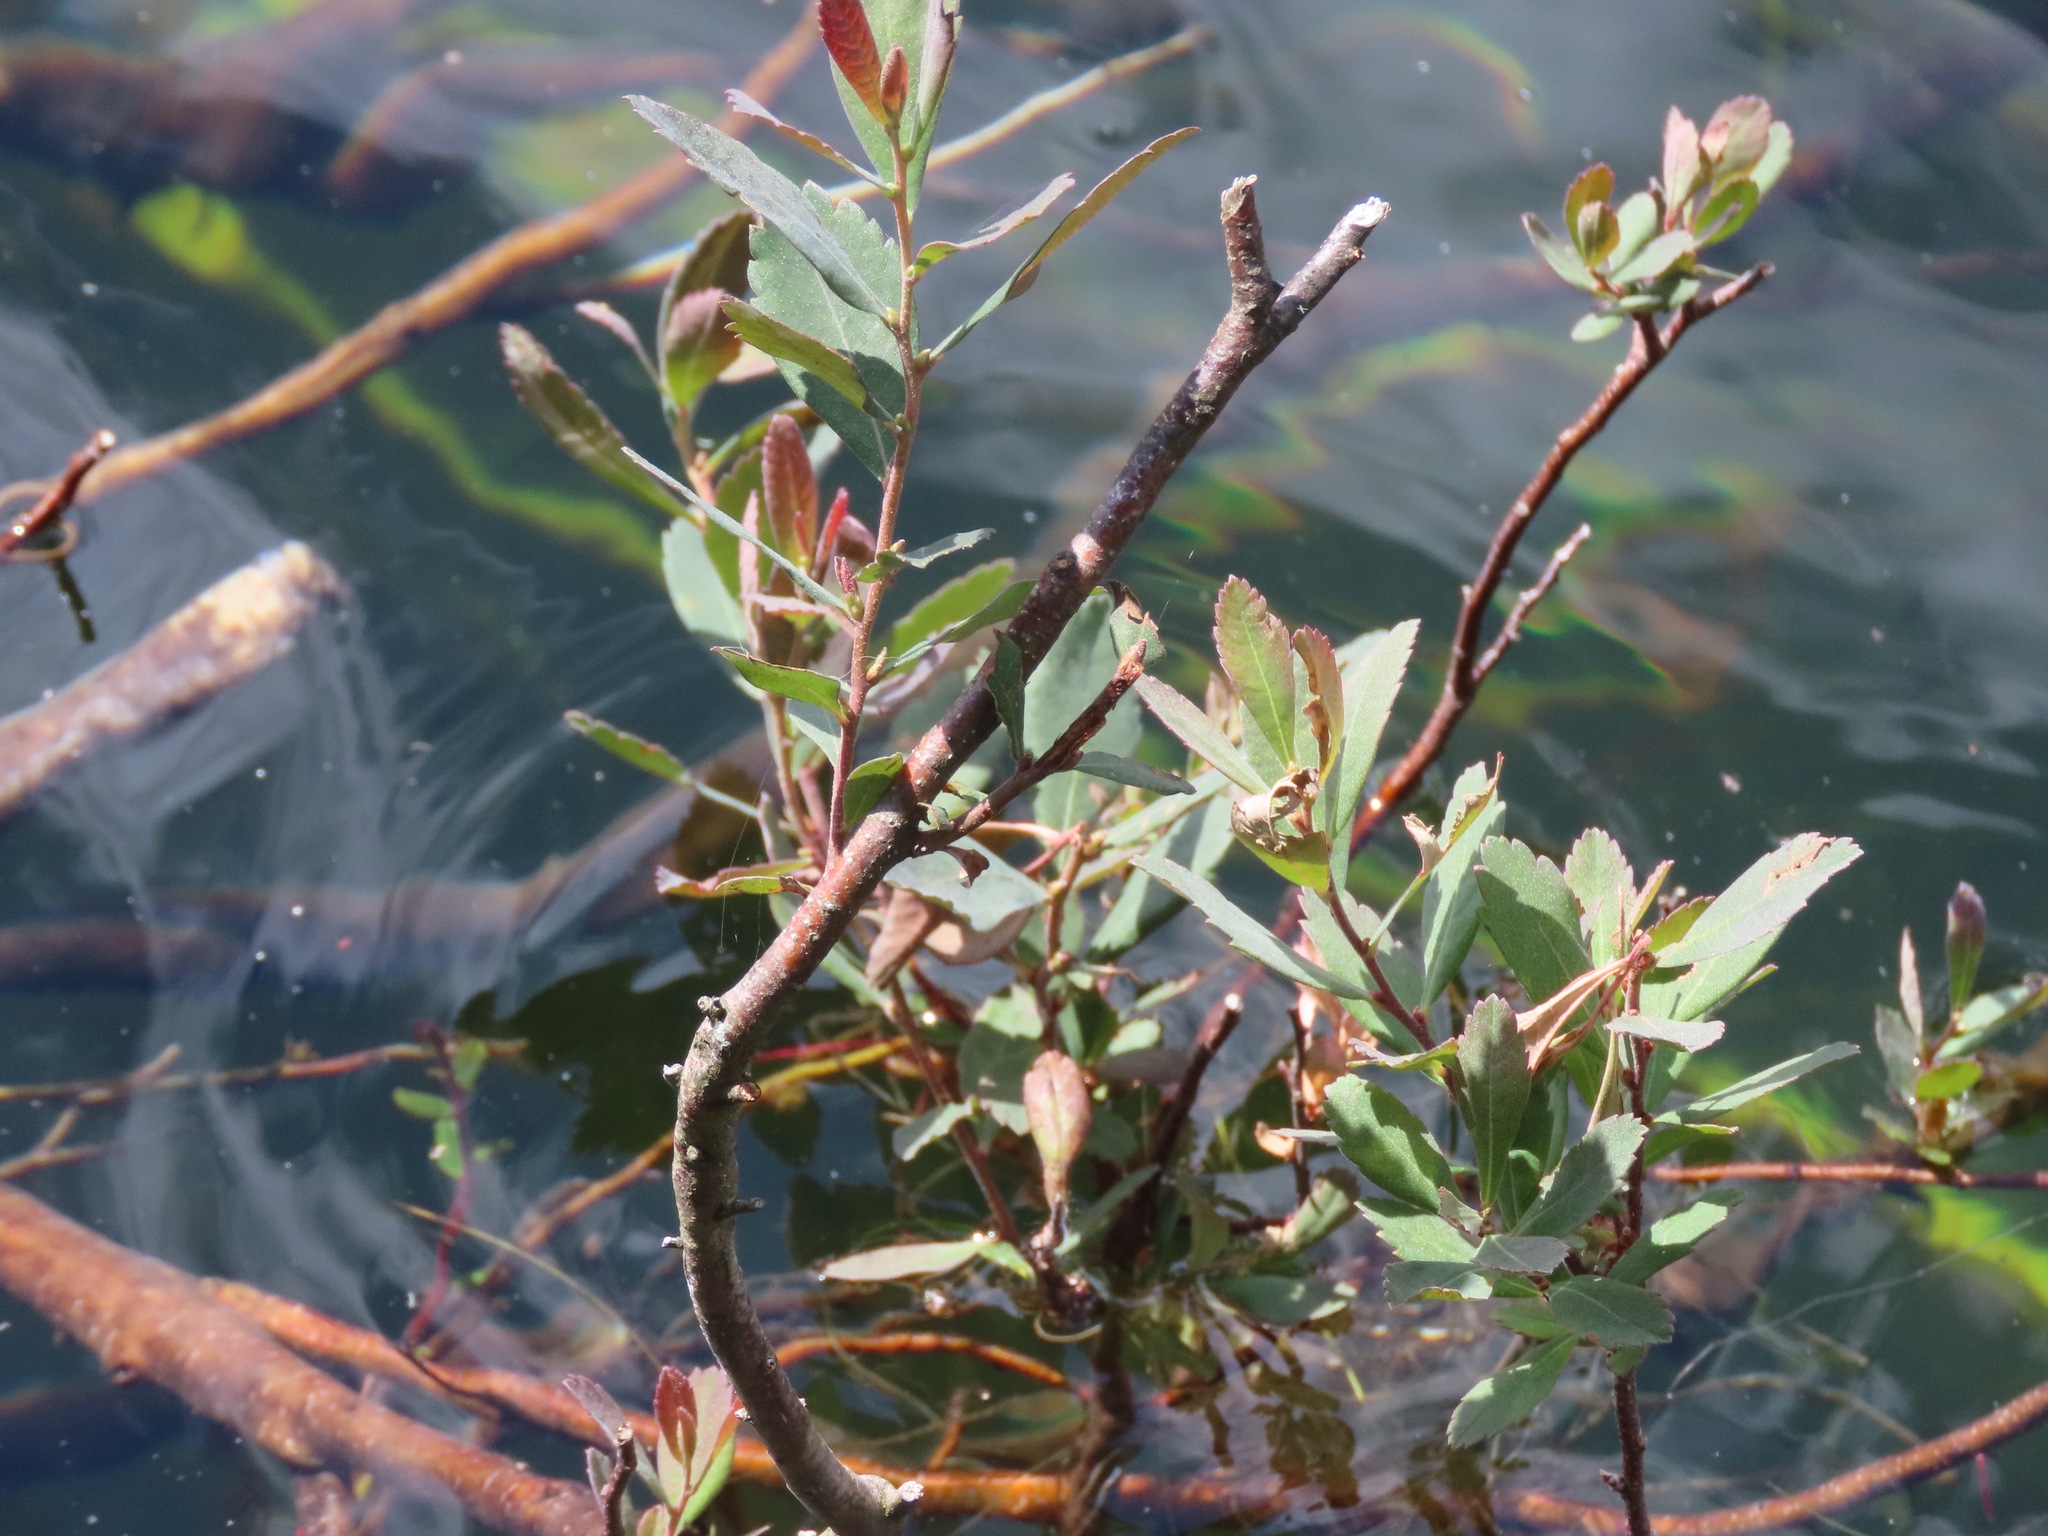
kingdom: Plantae
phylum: Tracheophyta
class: Magnoliopsida
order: Fagales
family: Myricaceae
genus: Myrica
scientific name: Myrica gale
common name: Sweet gale
